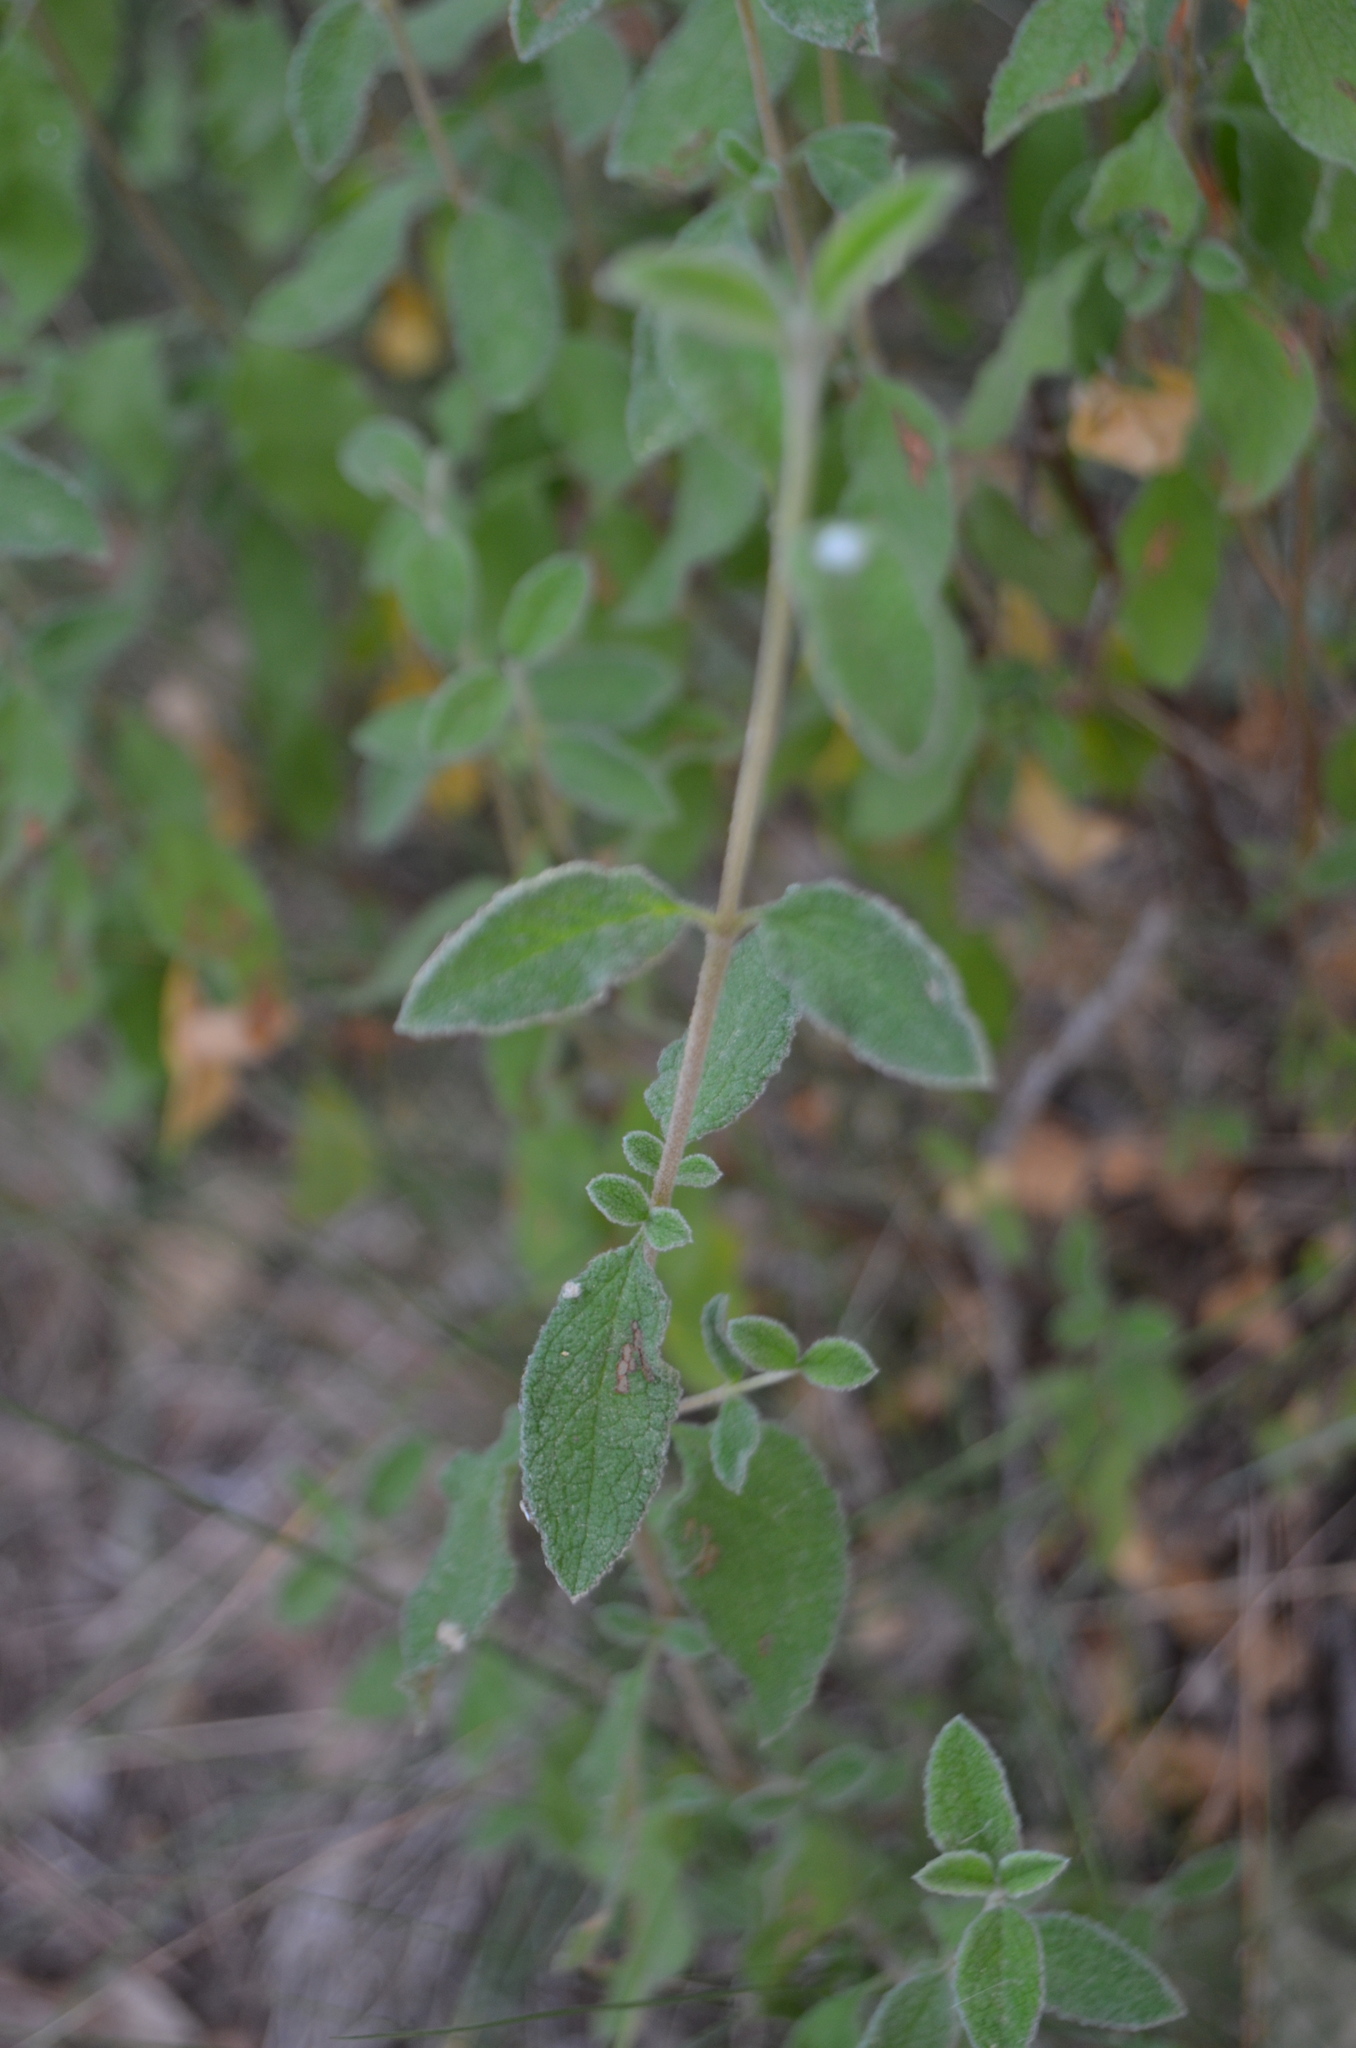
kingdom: Plantae
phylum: Tracheophyta
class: Magnoliopsida
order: Malvales
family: Cistaceae
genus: Cistus
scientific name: Cistus salviifolius
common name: Salvia cistus
